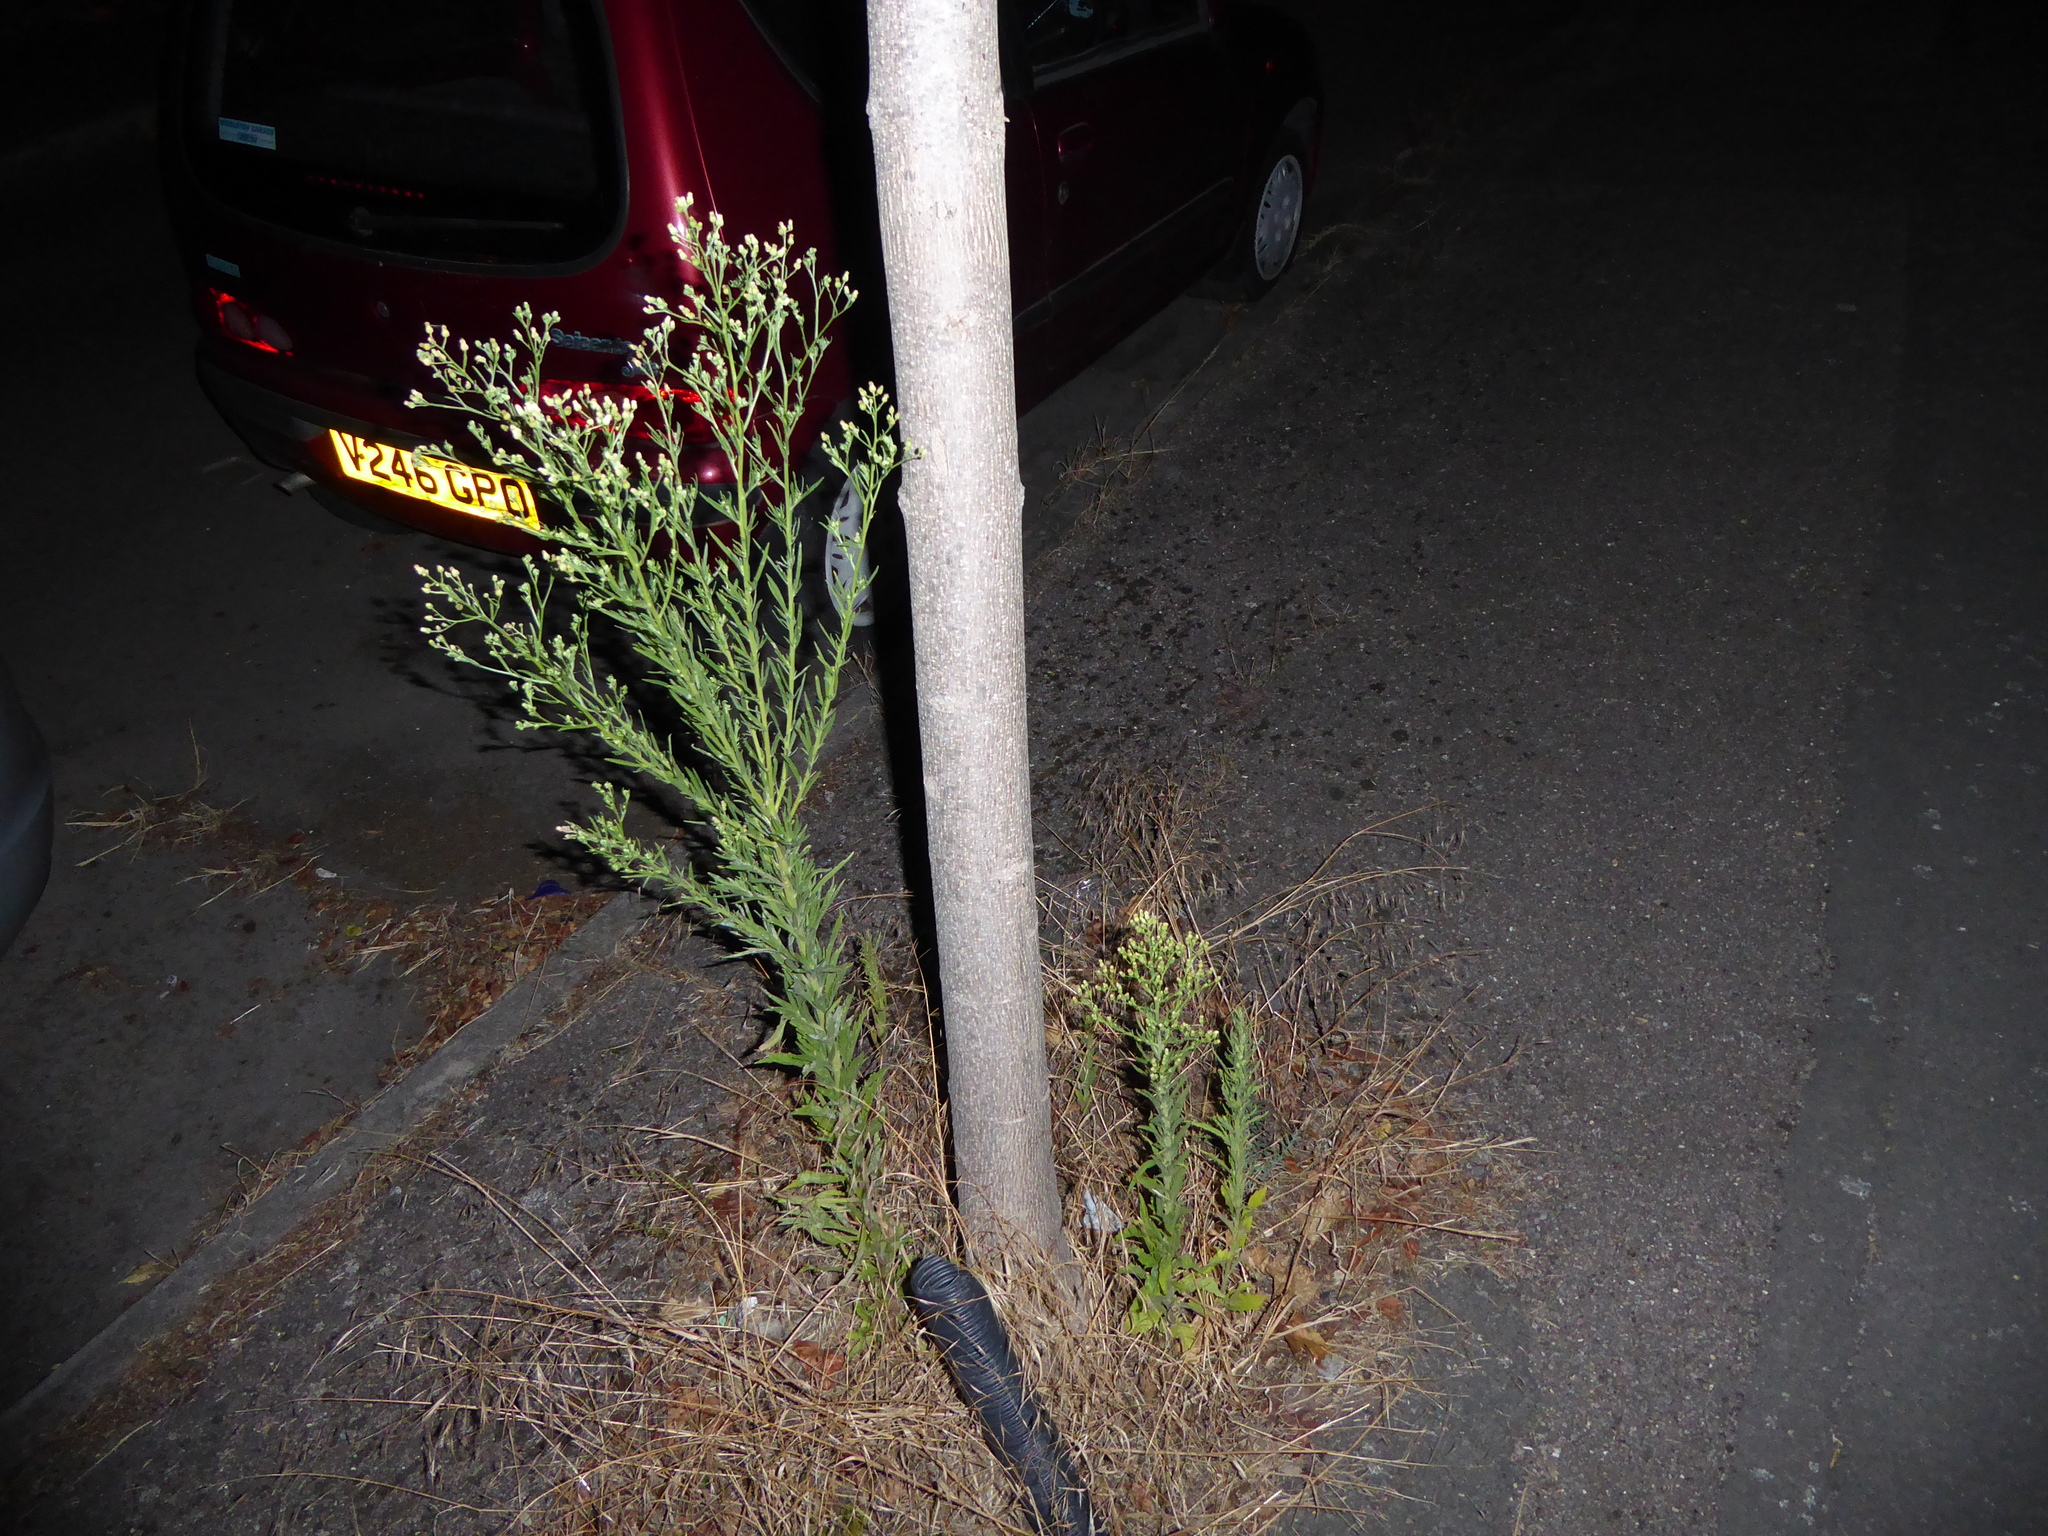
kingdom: Plantae
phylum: Tracheophyta
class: Magnoliopsida
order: Asterales
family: Asteraceae
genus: Erigeron
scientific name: Erigeron sumatrensis
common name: Daisy
